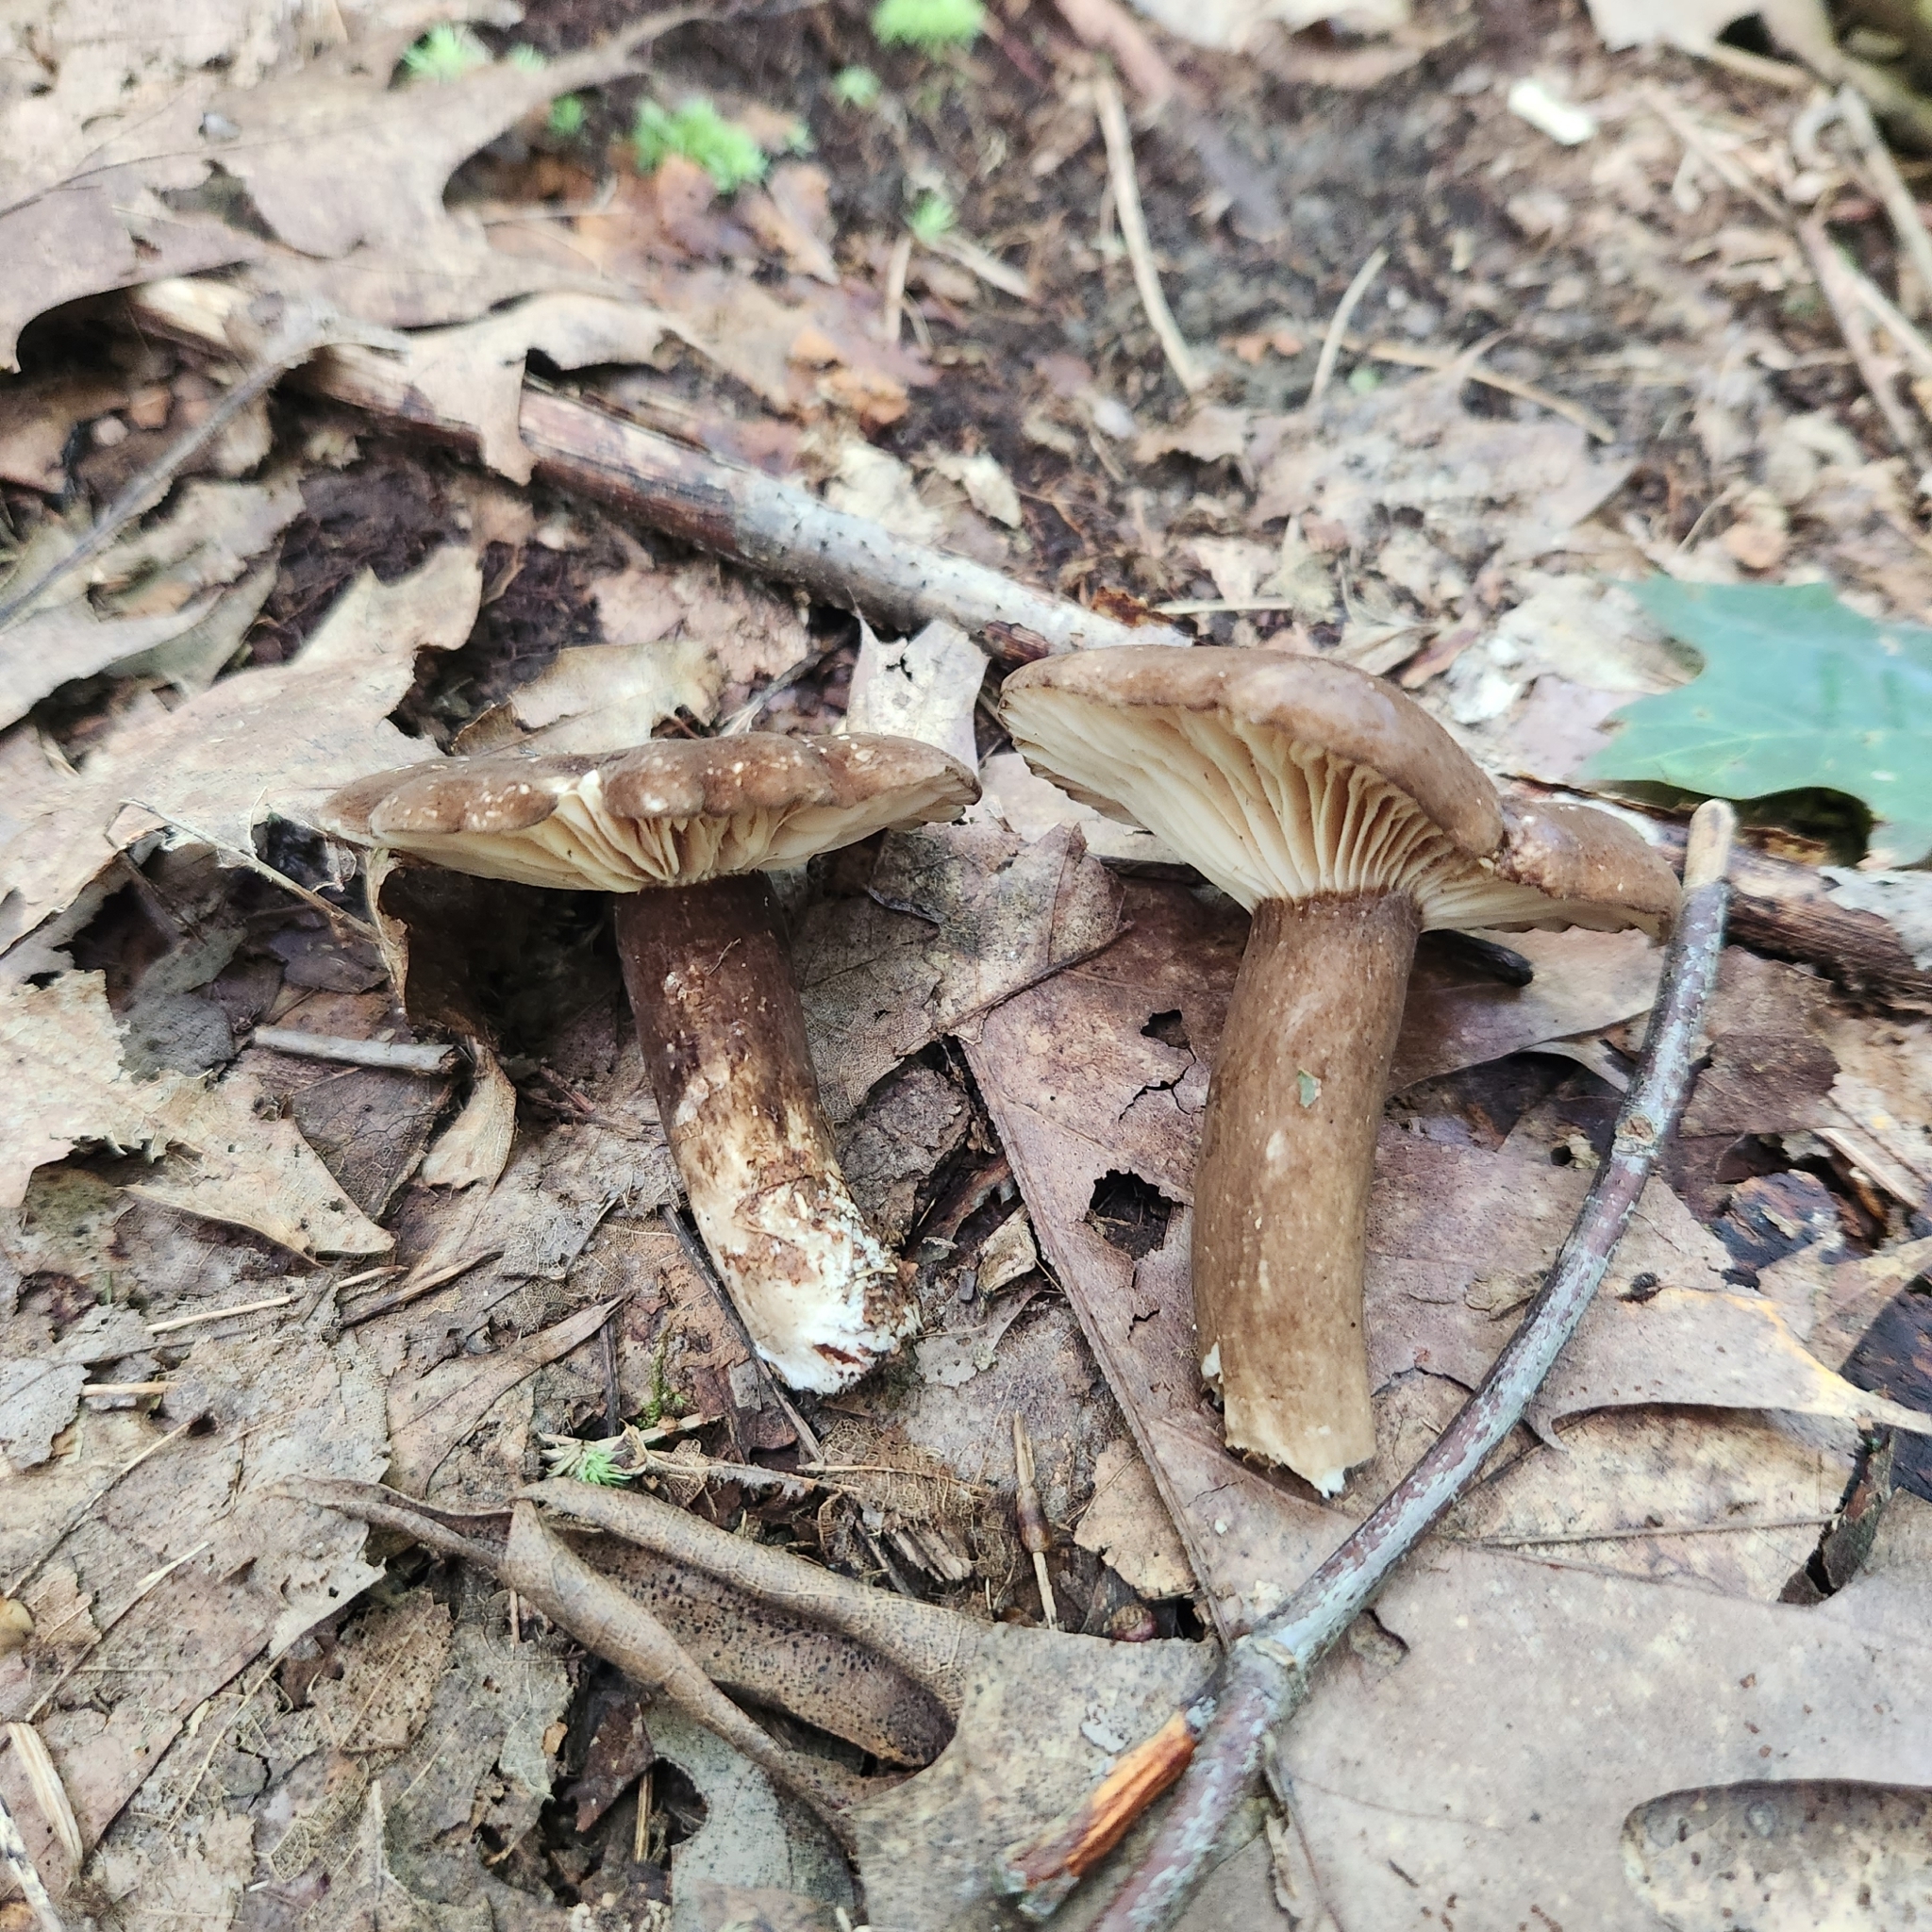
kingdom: Fungi
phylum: Basidiomycota
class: Agaricomycetes
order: Russulales
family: Russulaceae
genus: Lactarius
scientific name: Lactarius lignyotus
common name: Velvet milkcap
